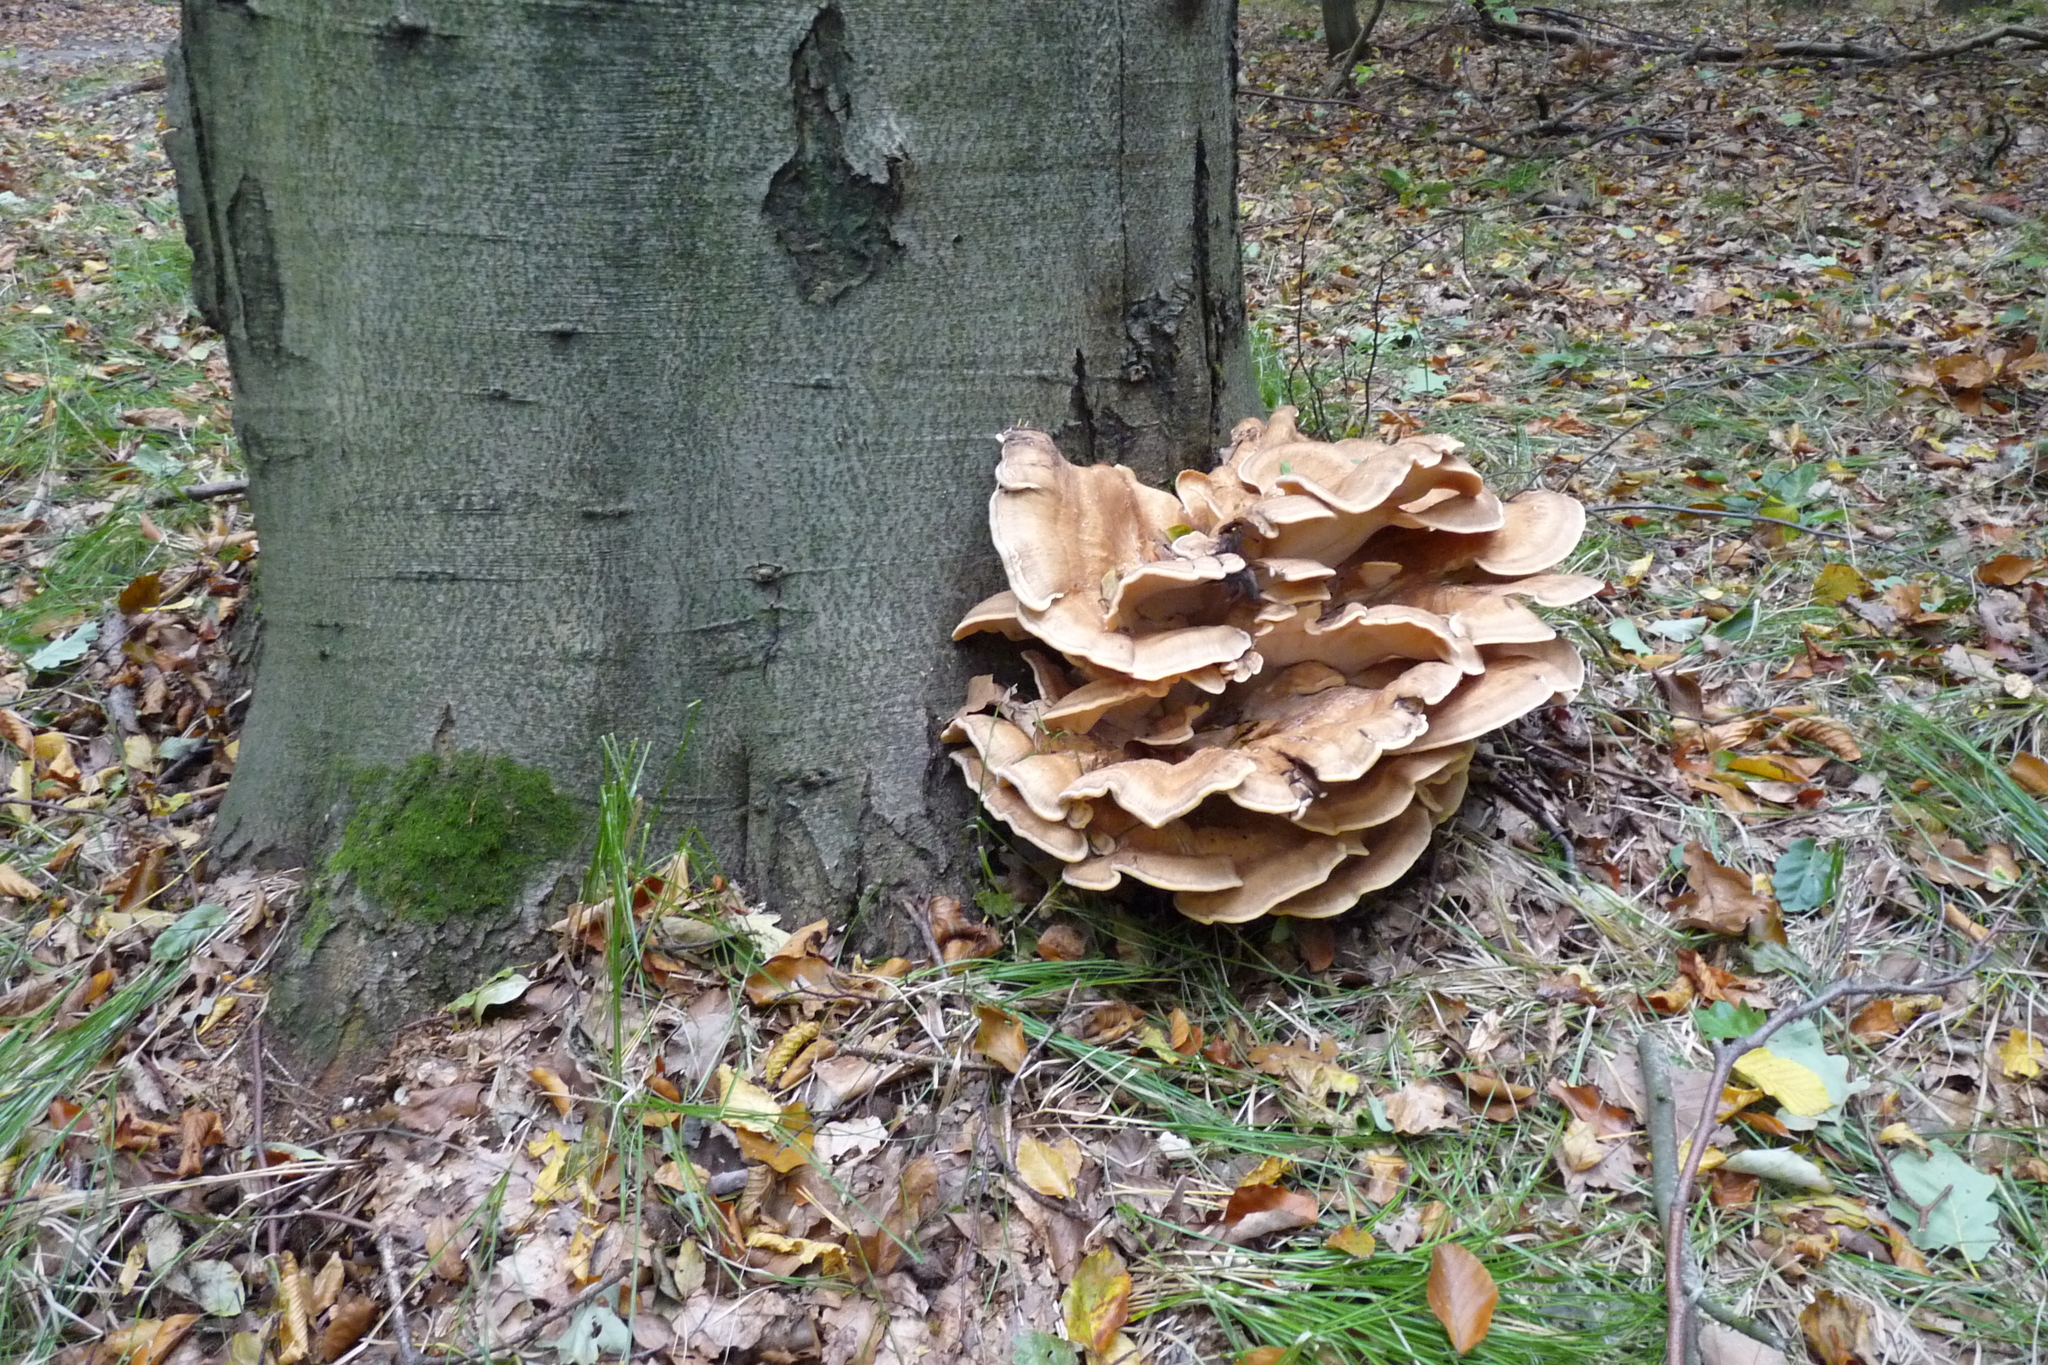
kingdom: Fungi
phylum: Basidiomycota
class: Agaricomycetes
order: Polyporales
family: Meripilaceae
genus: Meripilus
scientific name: Meripilus giganteus
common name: Giant polypore
